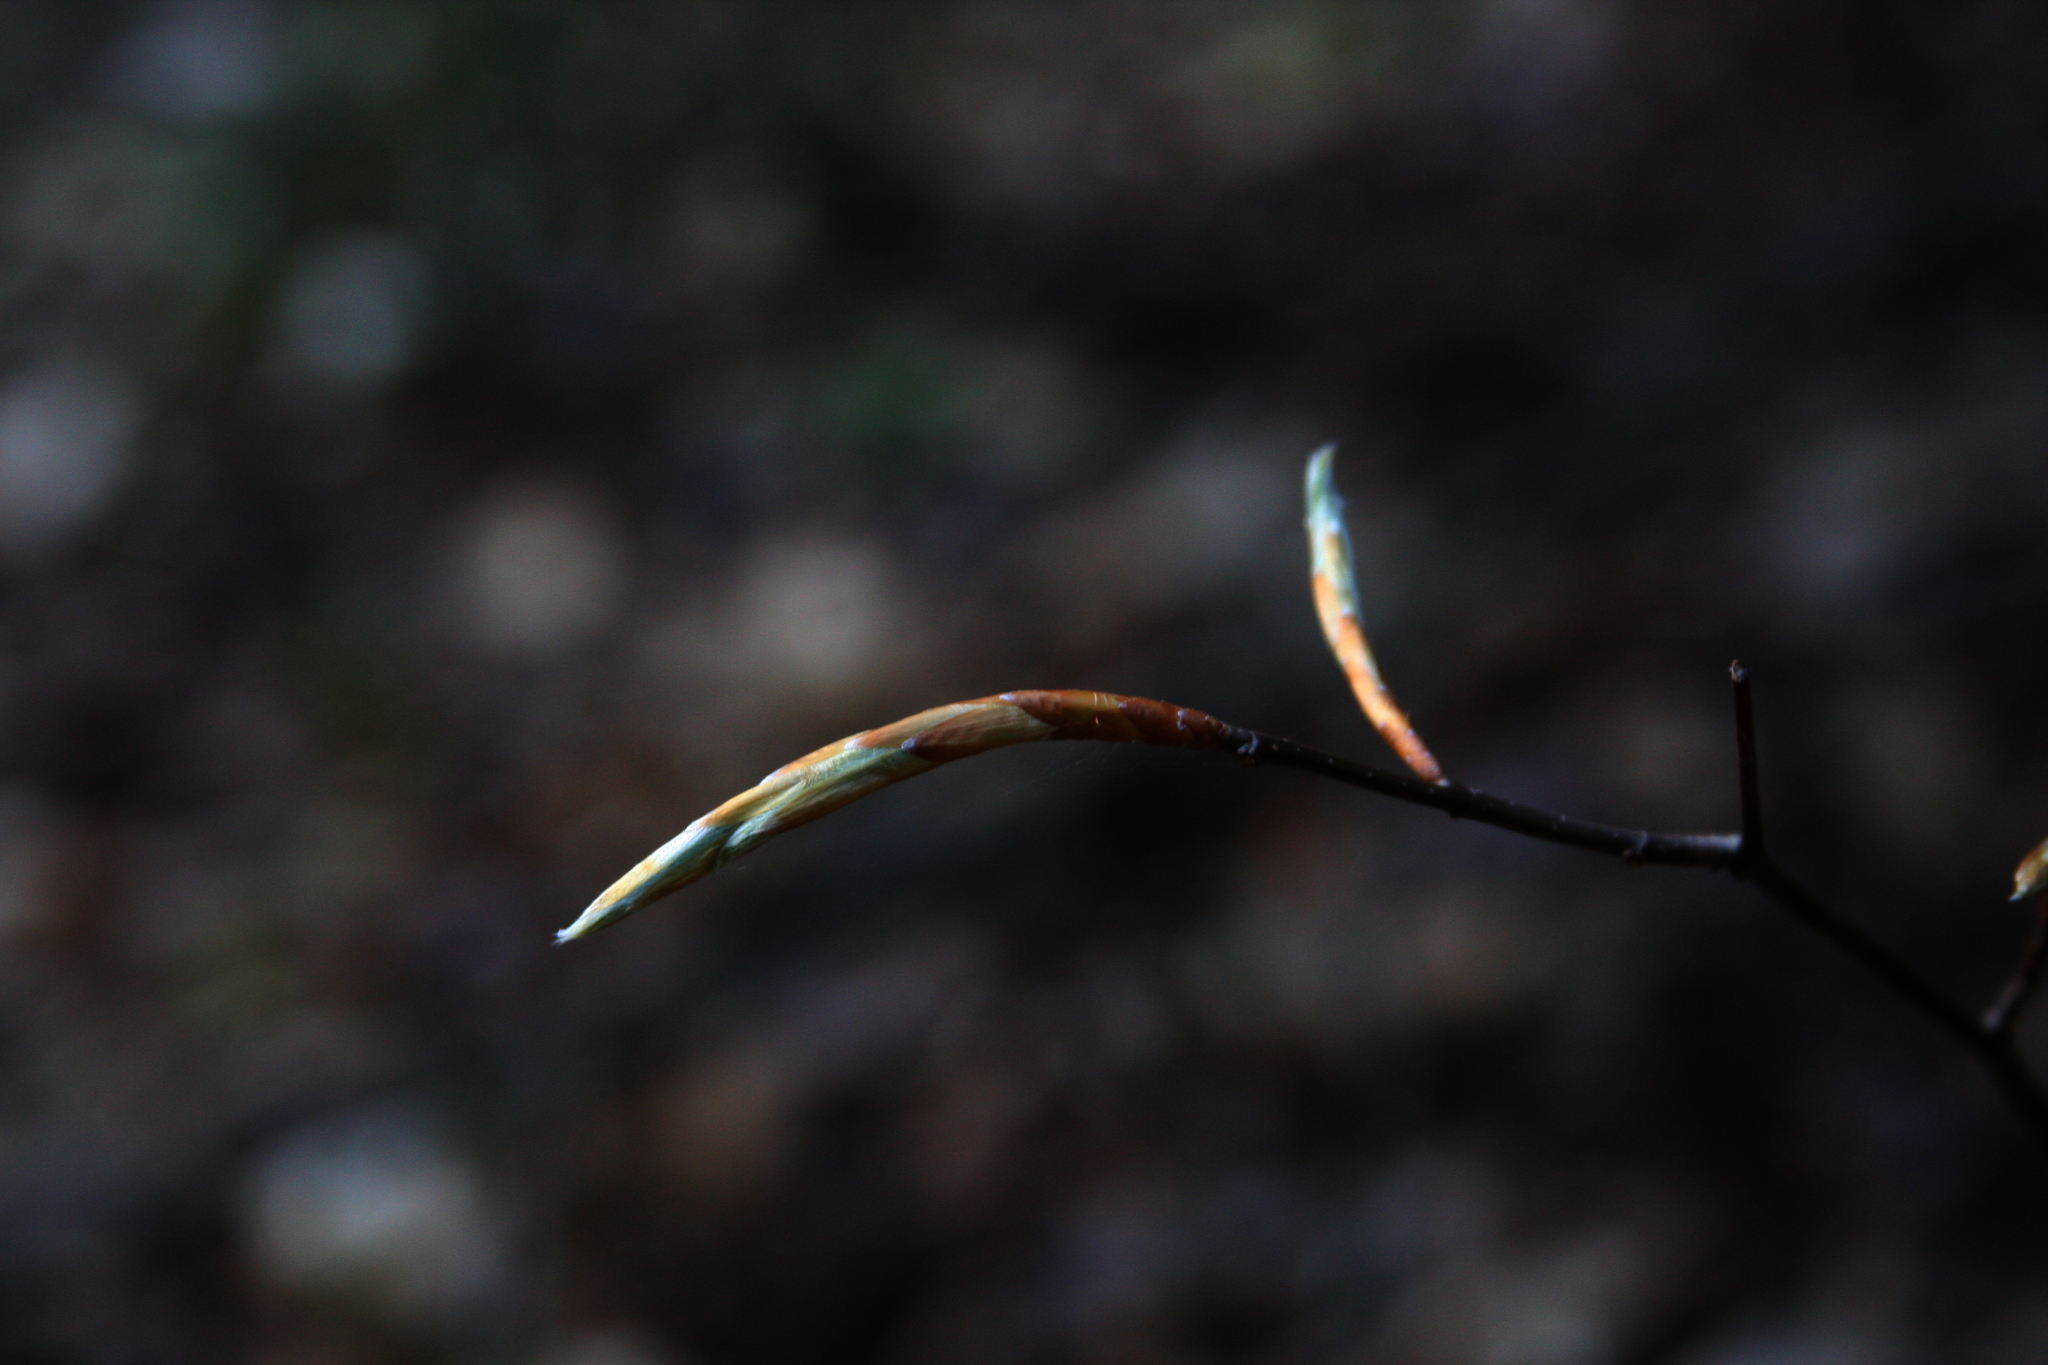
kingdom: Plantae
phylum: Tracheophyta
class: Magnoliopsida
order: Fagales
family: Fagaceae
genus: Fagus
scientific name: Fagus grandifolia
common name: American beech
